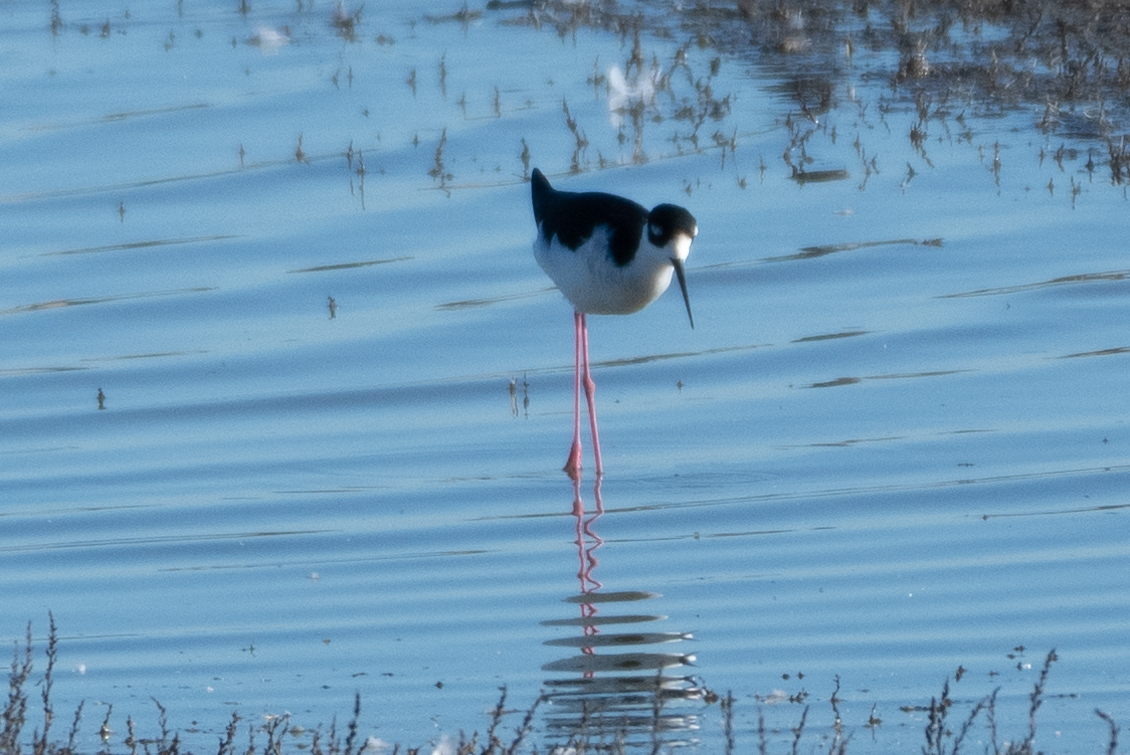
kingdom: Animalia
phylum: Chordata
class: Aves
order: Charadriiformes
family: Recurvirostridae
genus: Himantopus
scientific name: Himantopus mexicanus
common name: Black-necked stilt
